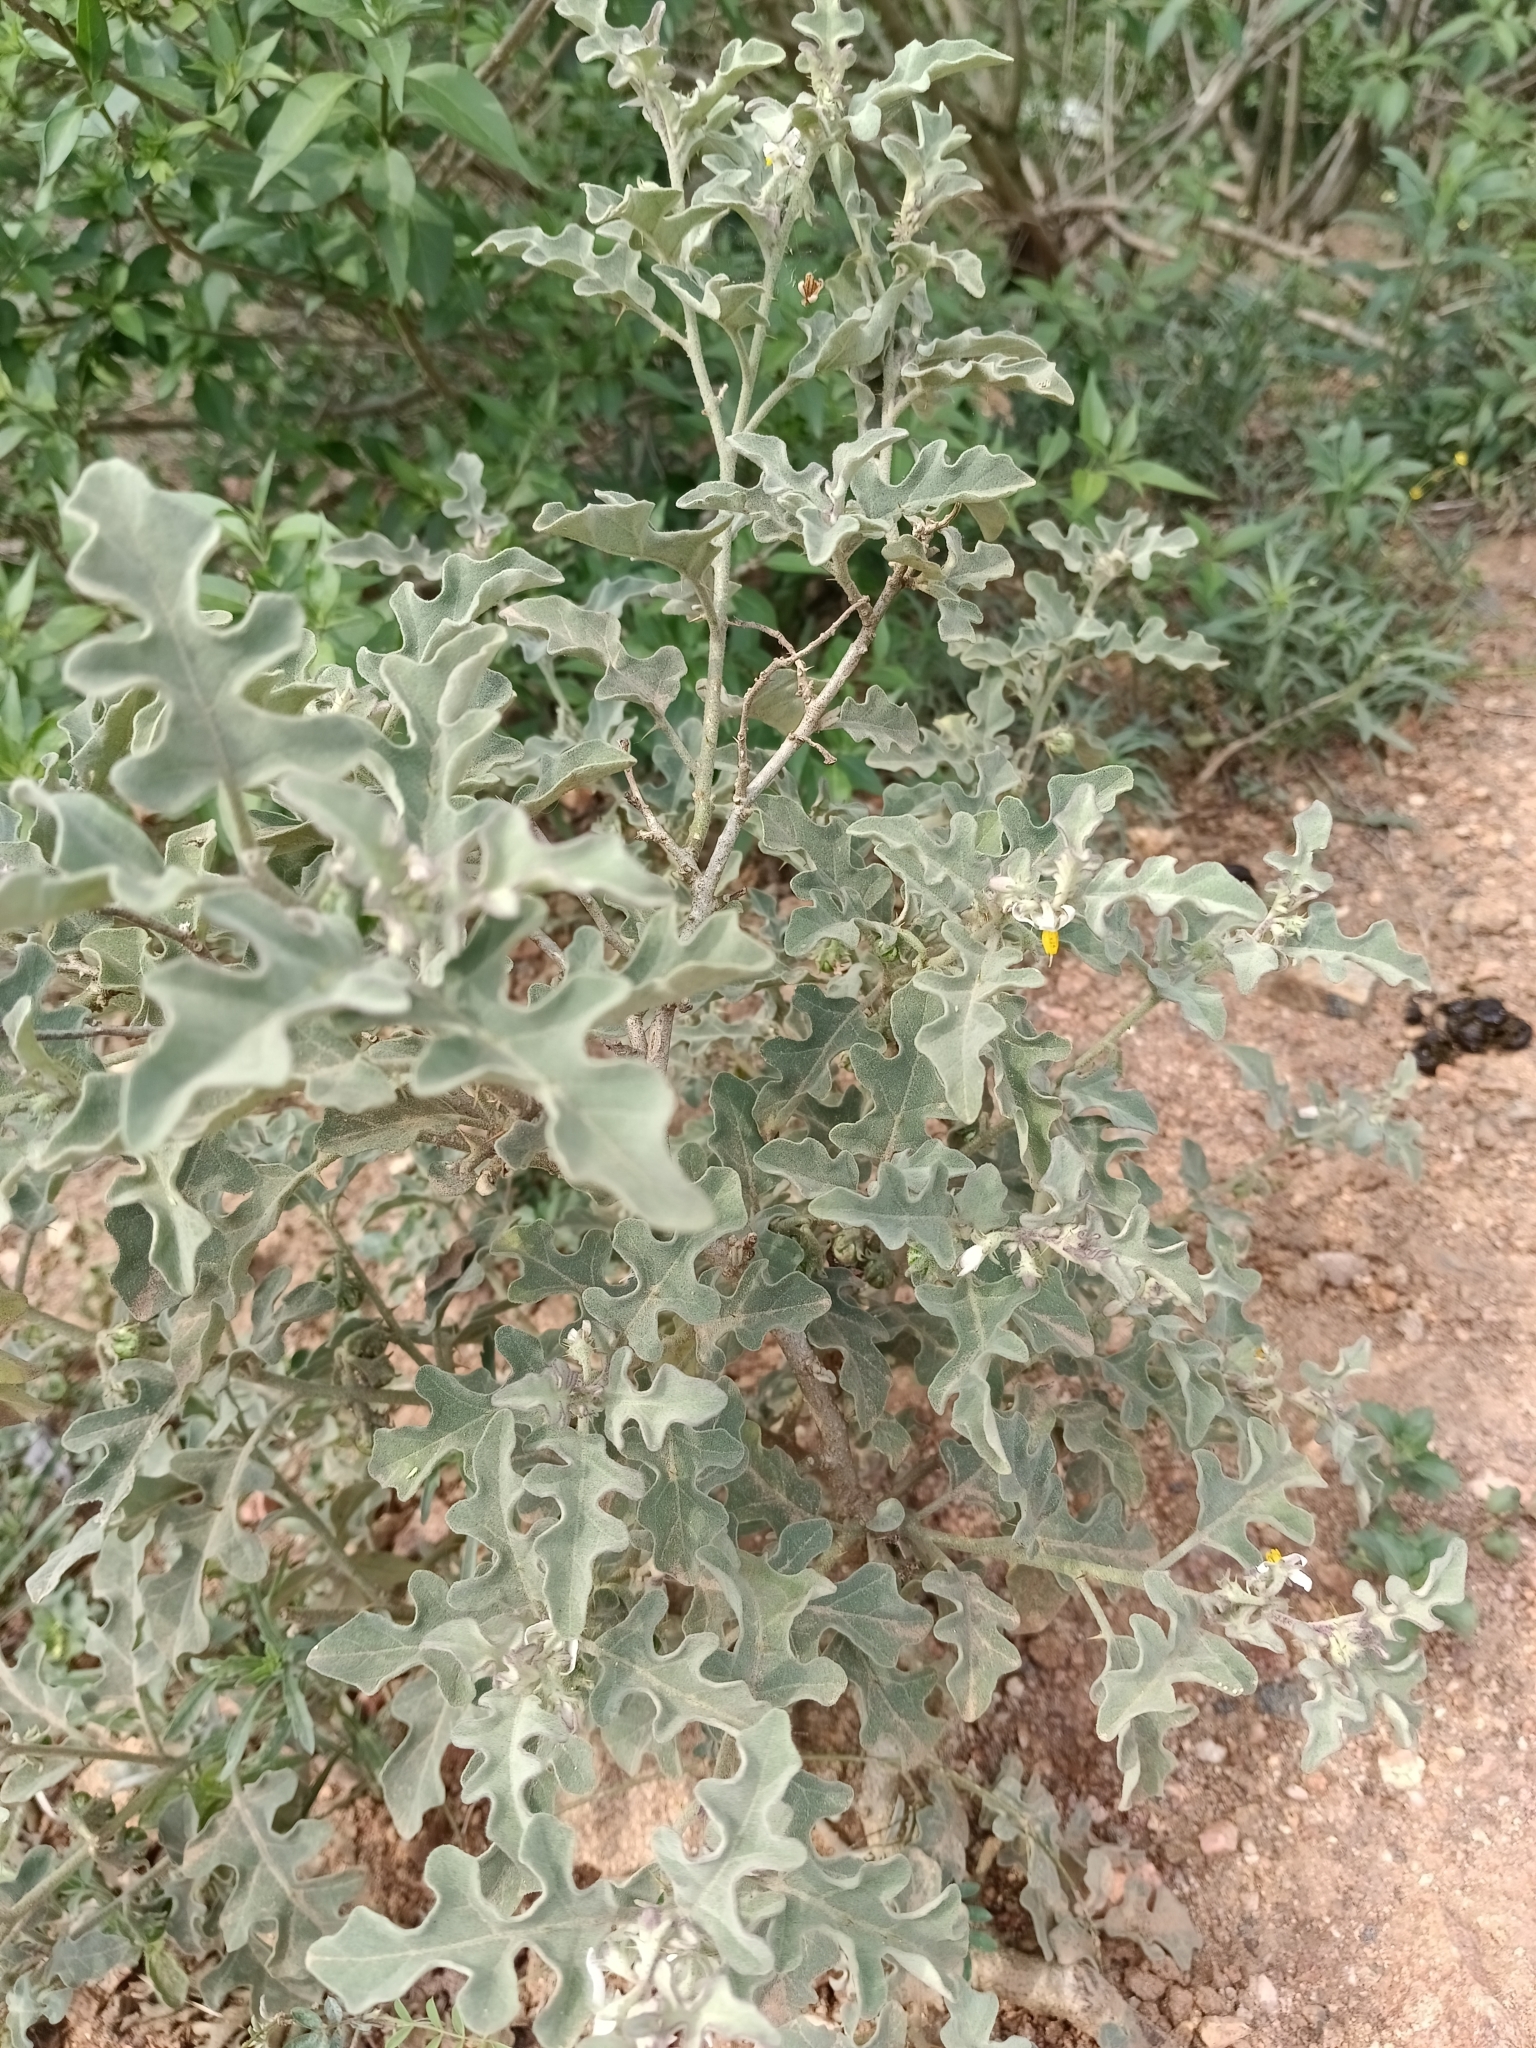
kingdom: Plantae
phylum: Tracheophyta
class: Magnoliopsida
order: Solanales
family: Solanaceae
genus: Solanum
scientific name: Solanum catombelense
